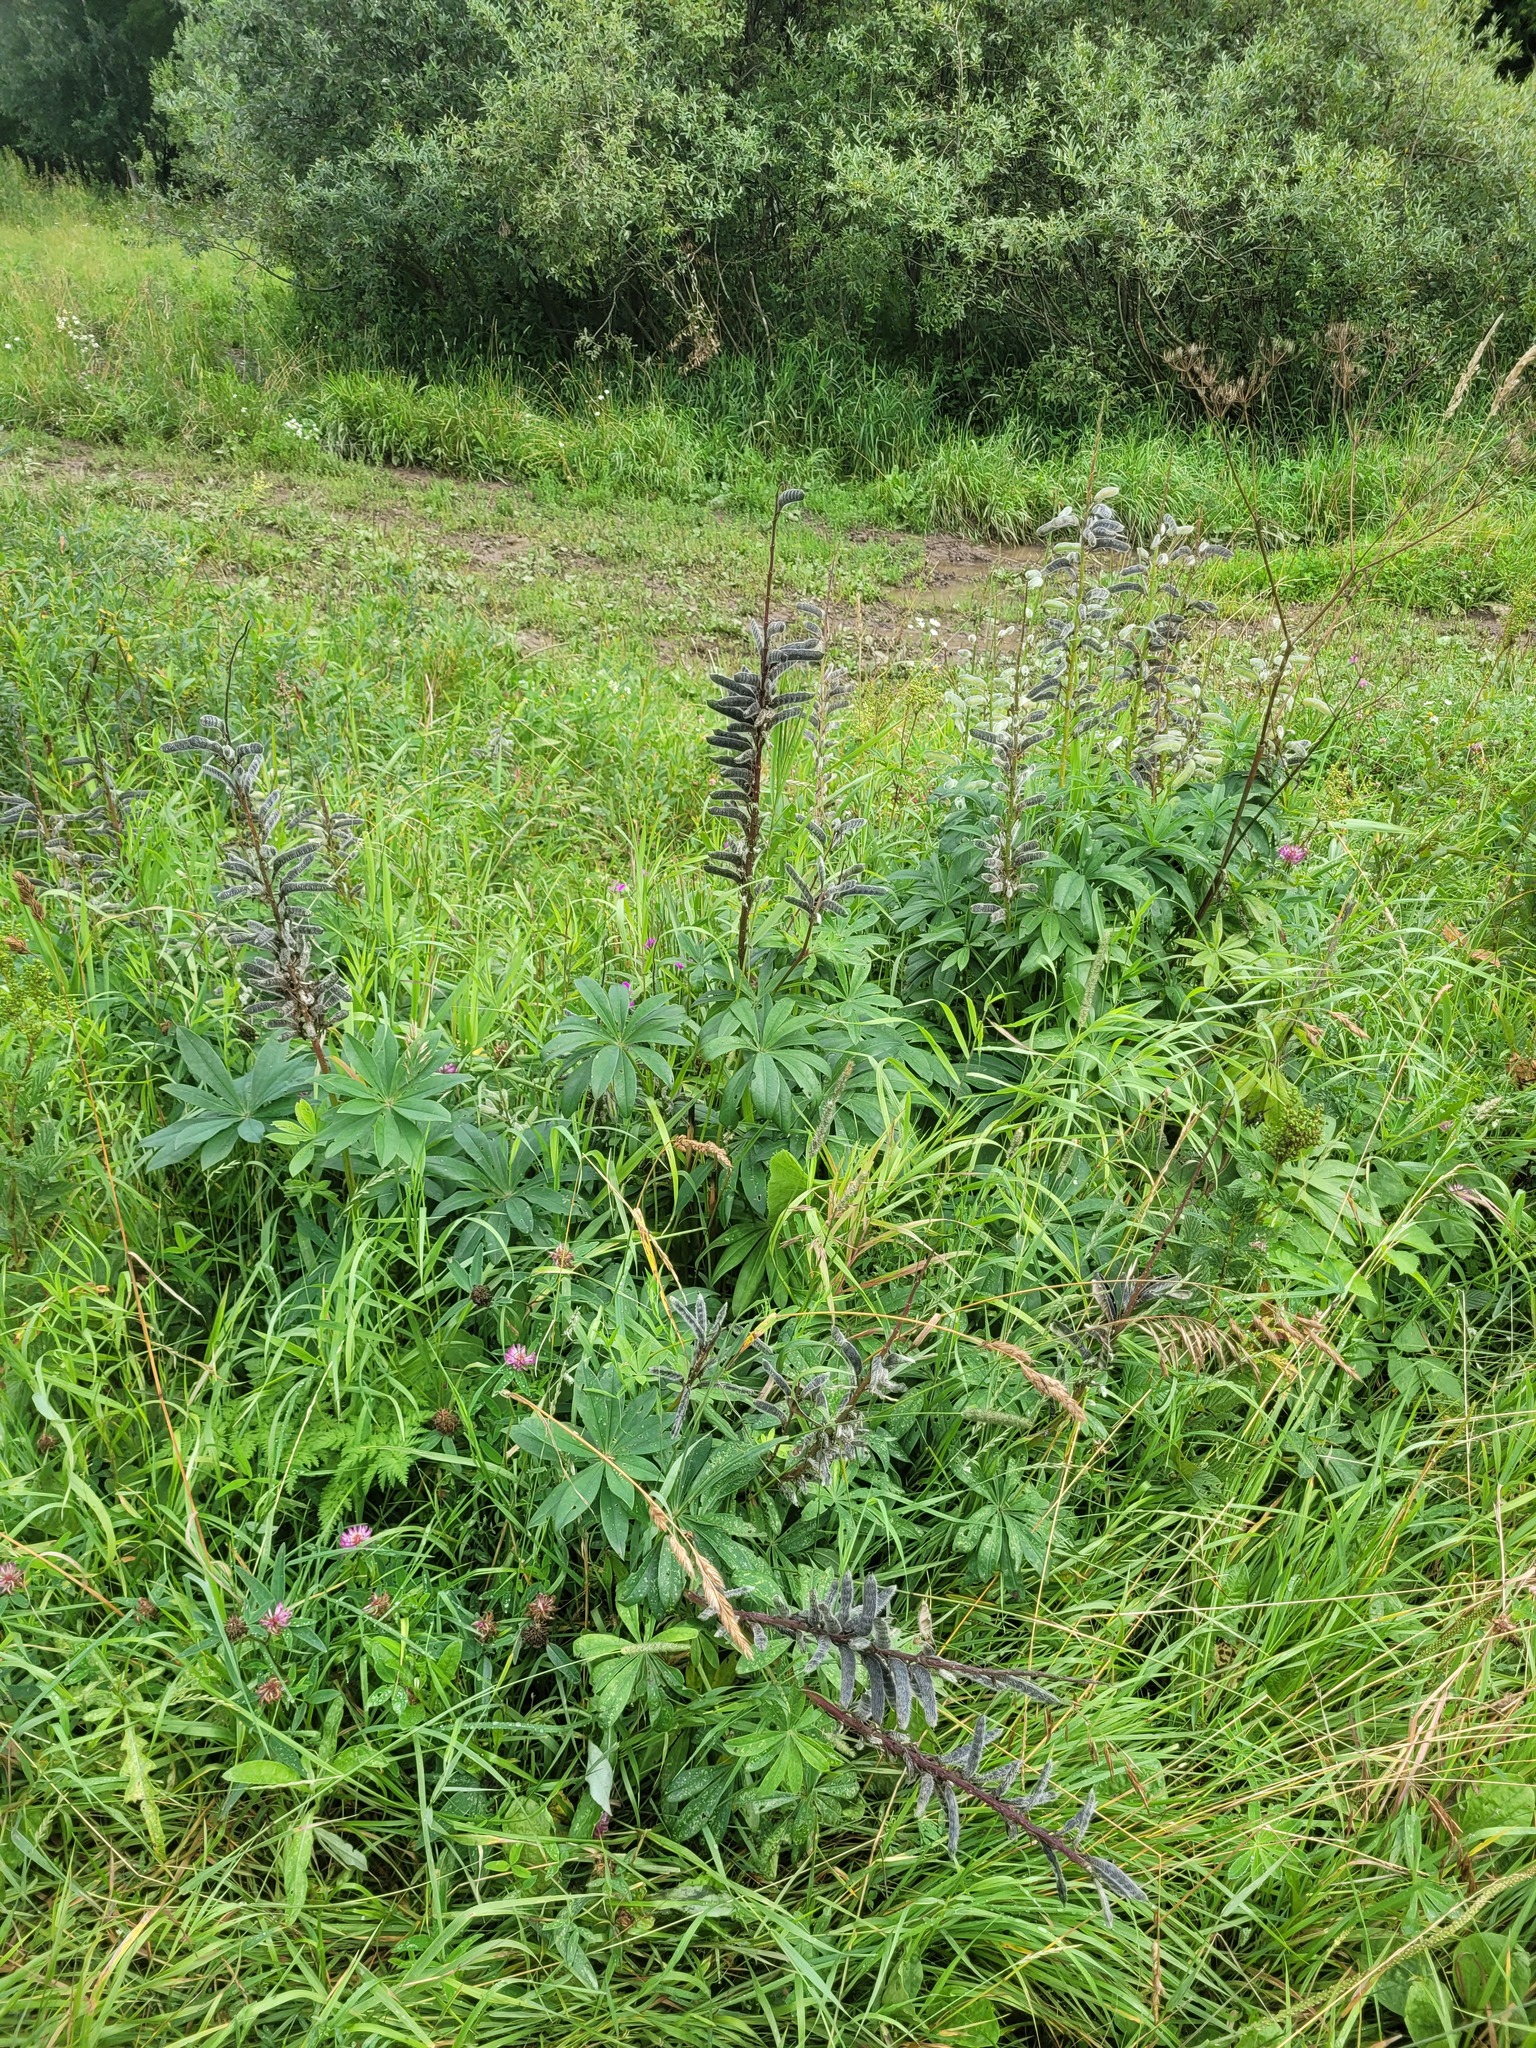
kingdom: Plantae
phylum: Tracheophyta
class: Magnoliopsida
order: Fabales
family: Fabaceae
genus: Lupinus
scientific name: Lupinus polyphyllus
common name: Garden lupin
